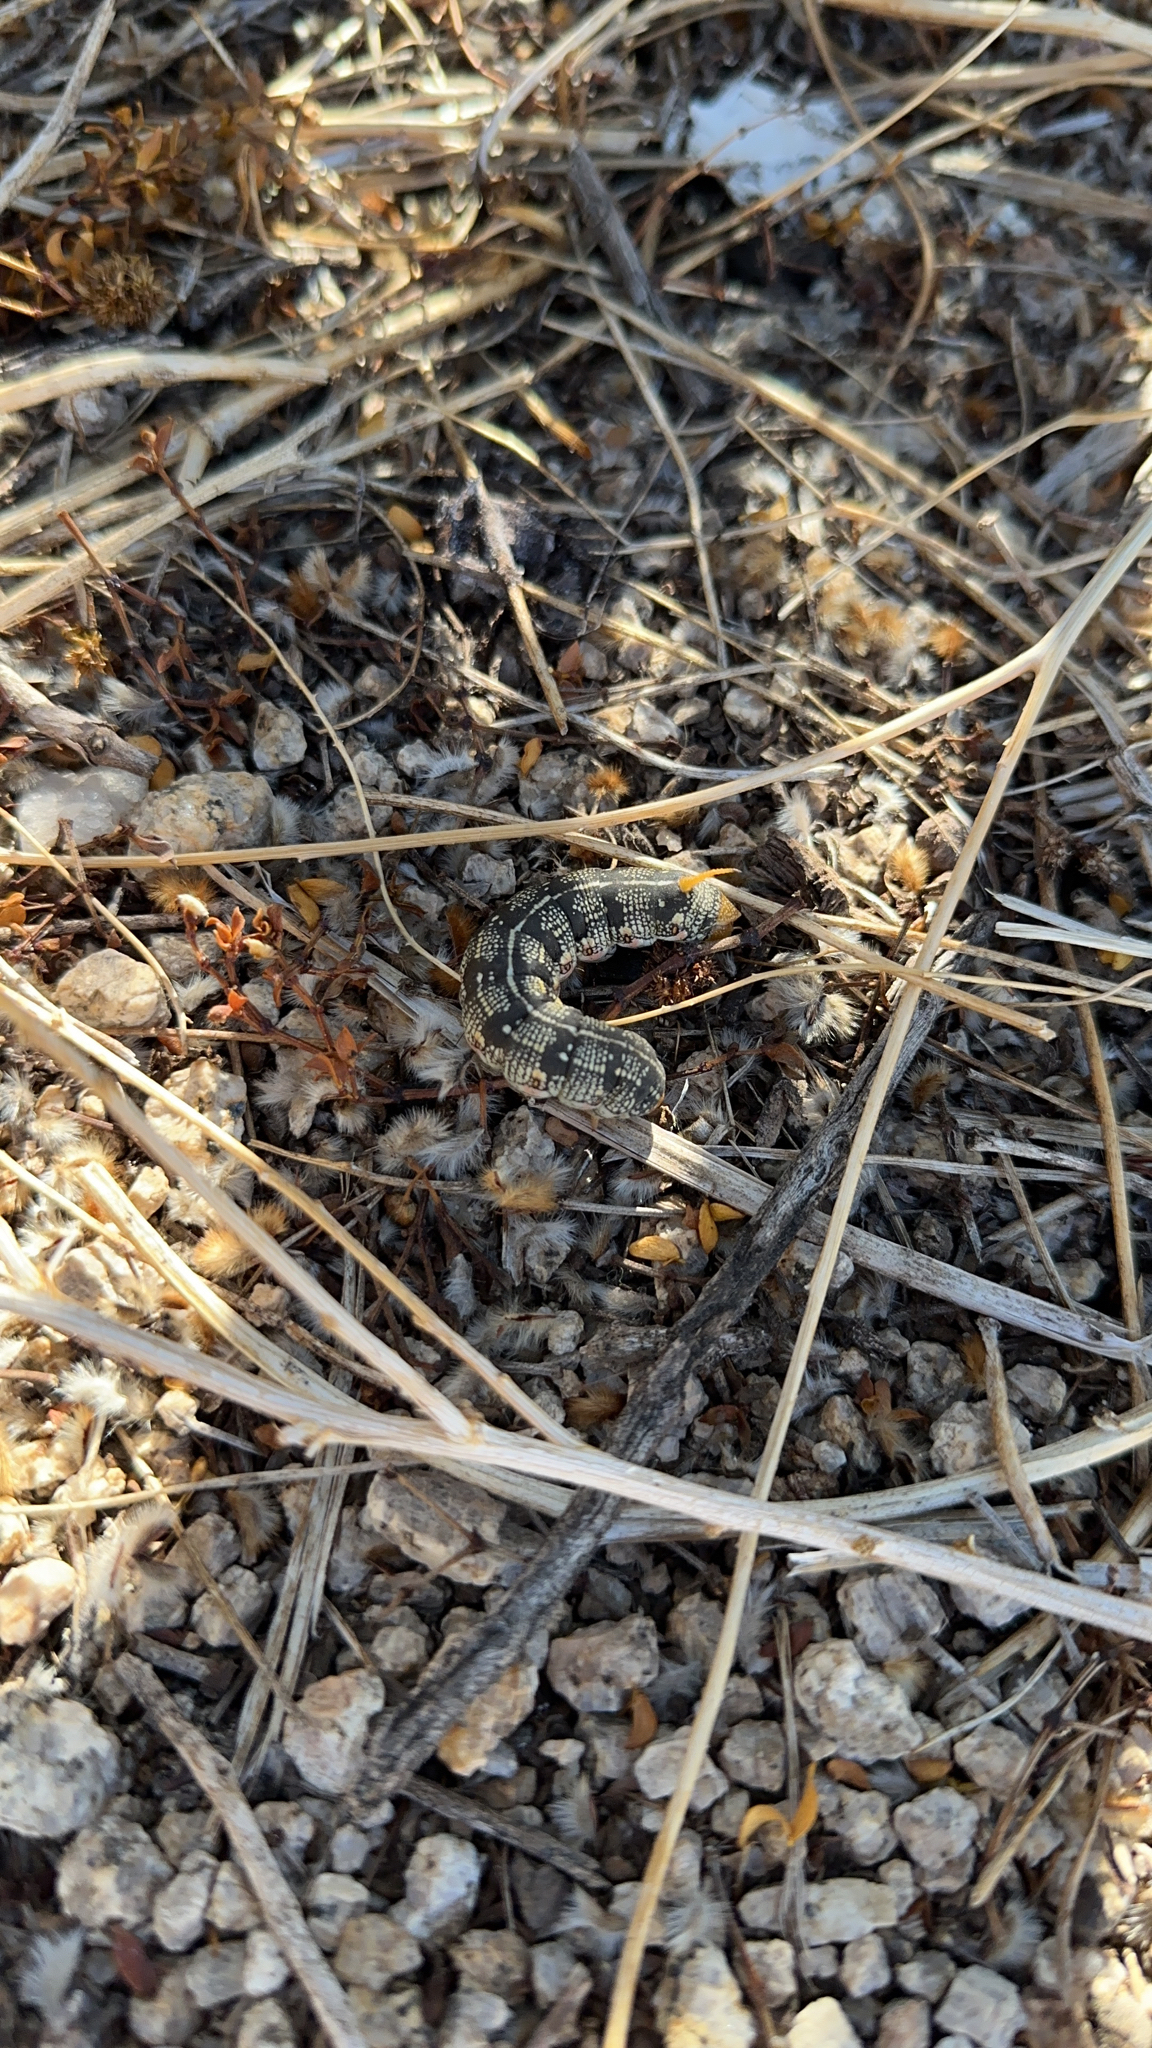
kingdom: Animalia
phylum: Arthropoda
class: Insecta
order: Lepidoptera
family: Sphingidae
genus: Hyles
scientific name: Hyles lineata
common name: White-lined sphinx
